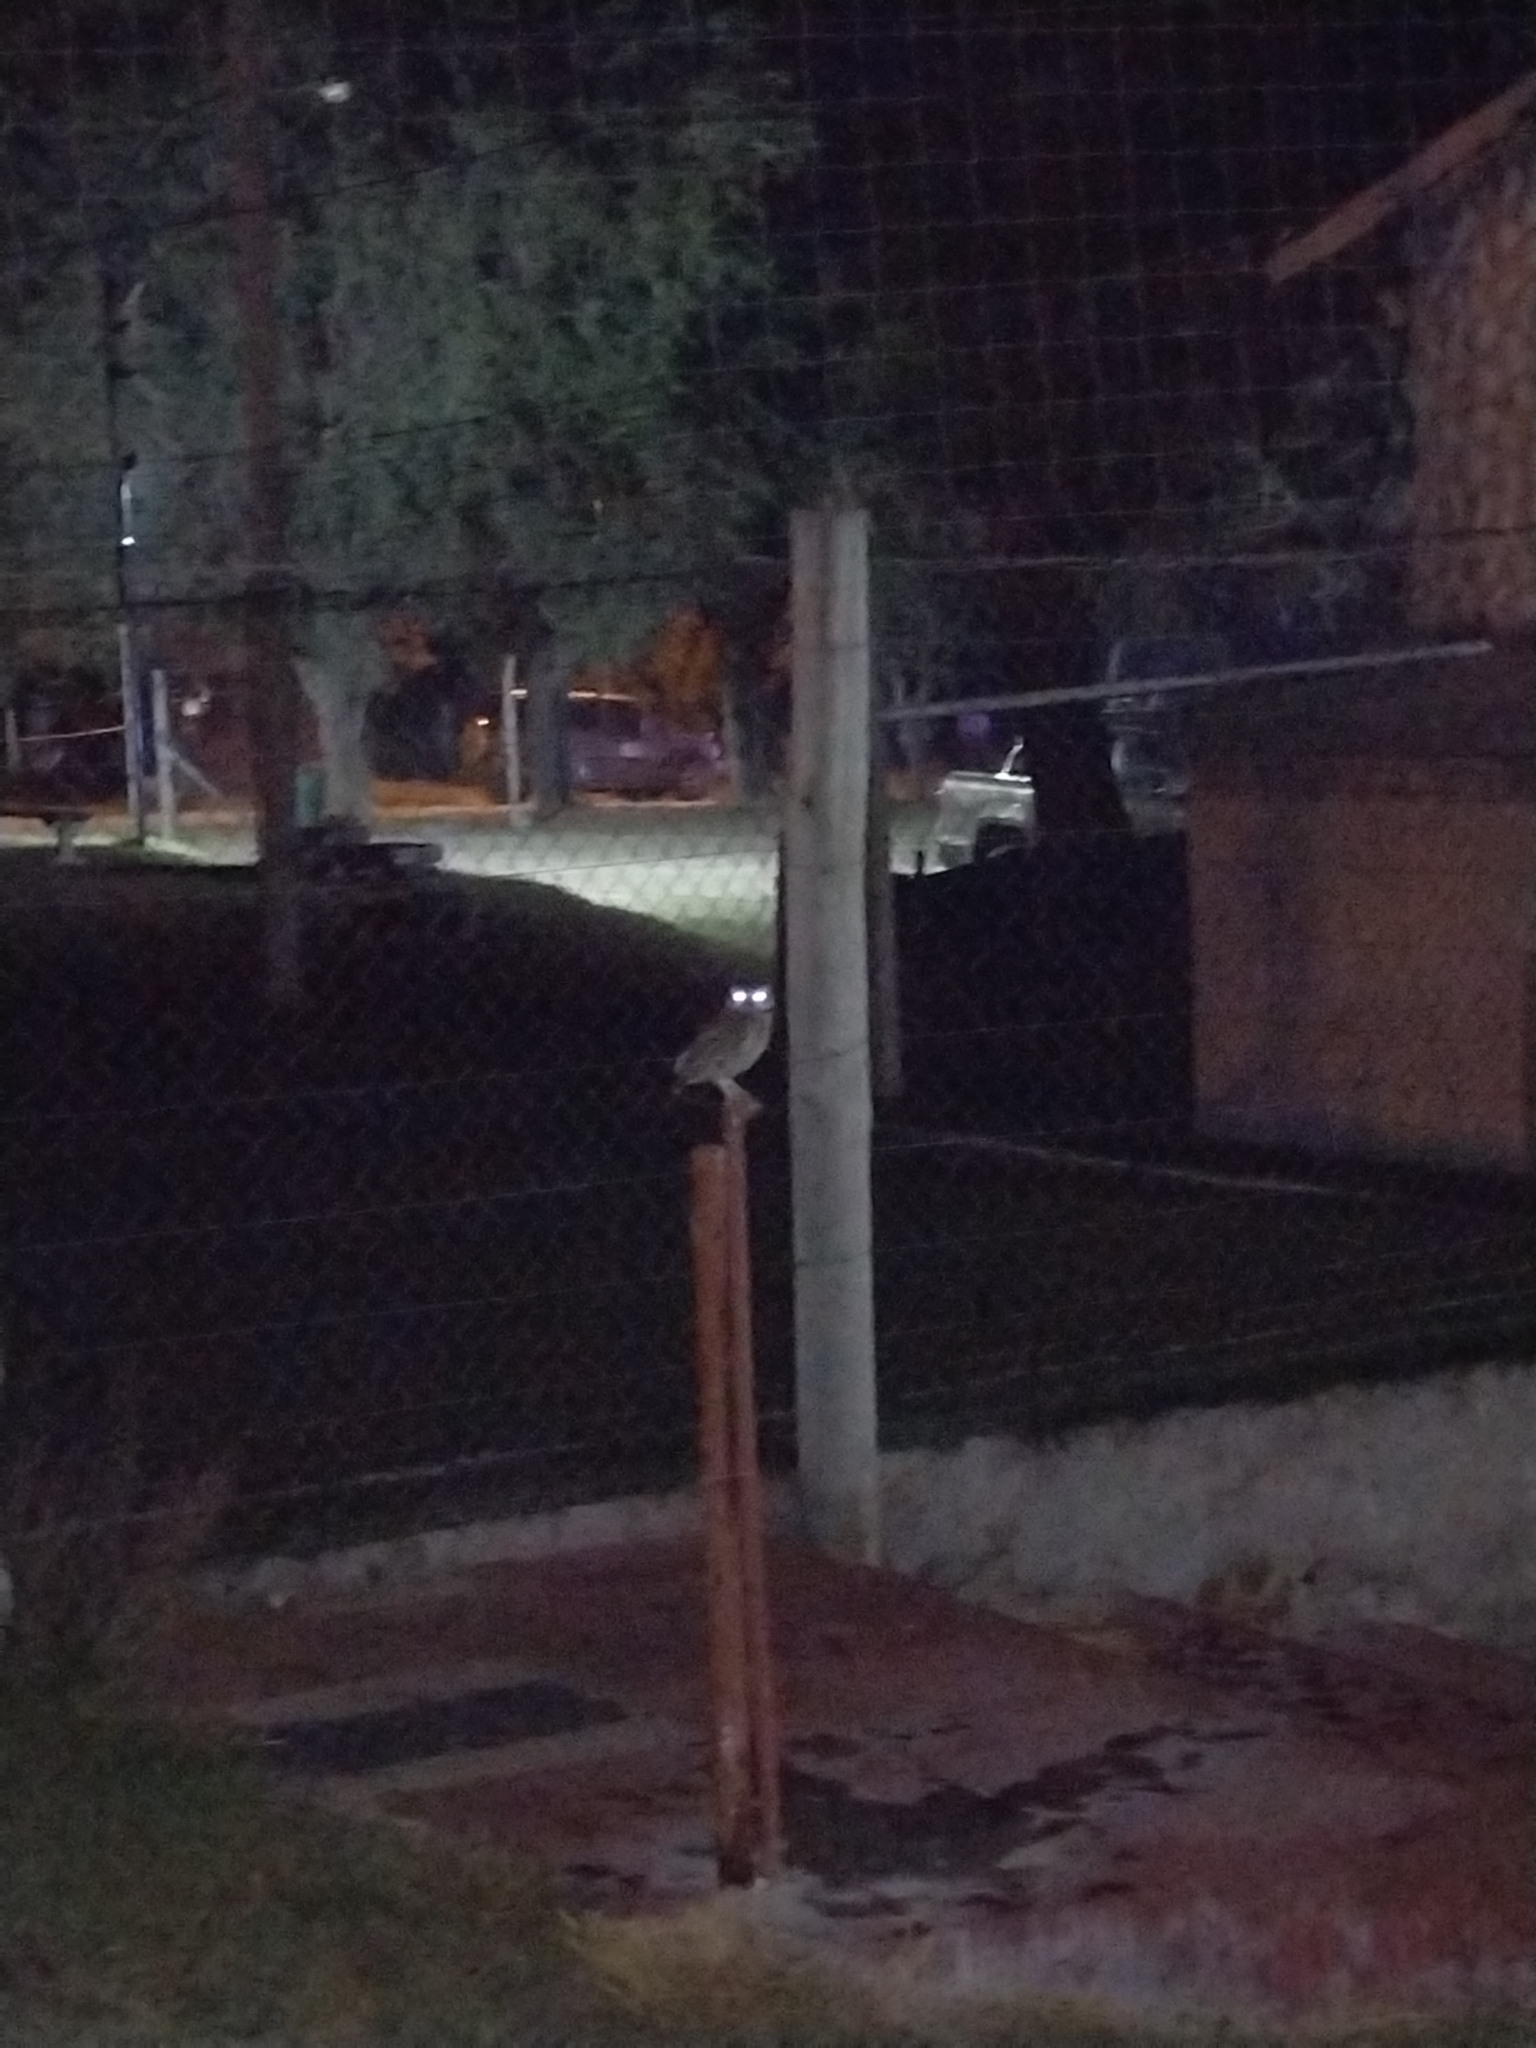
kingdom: Animalia
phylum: Chordata
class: Aves
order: Strigiformes
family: Strigidae
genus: Athene
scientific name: Athene cunicularia
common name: Burrowing owl
